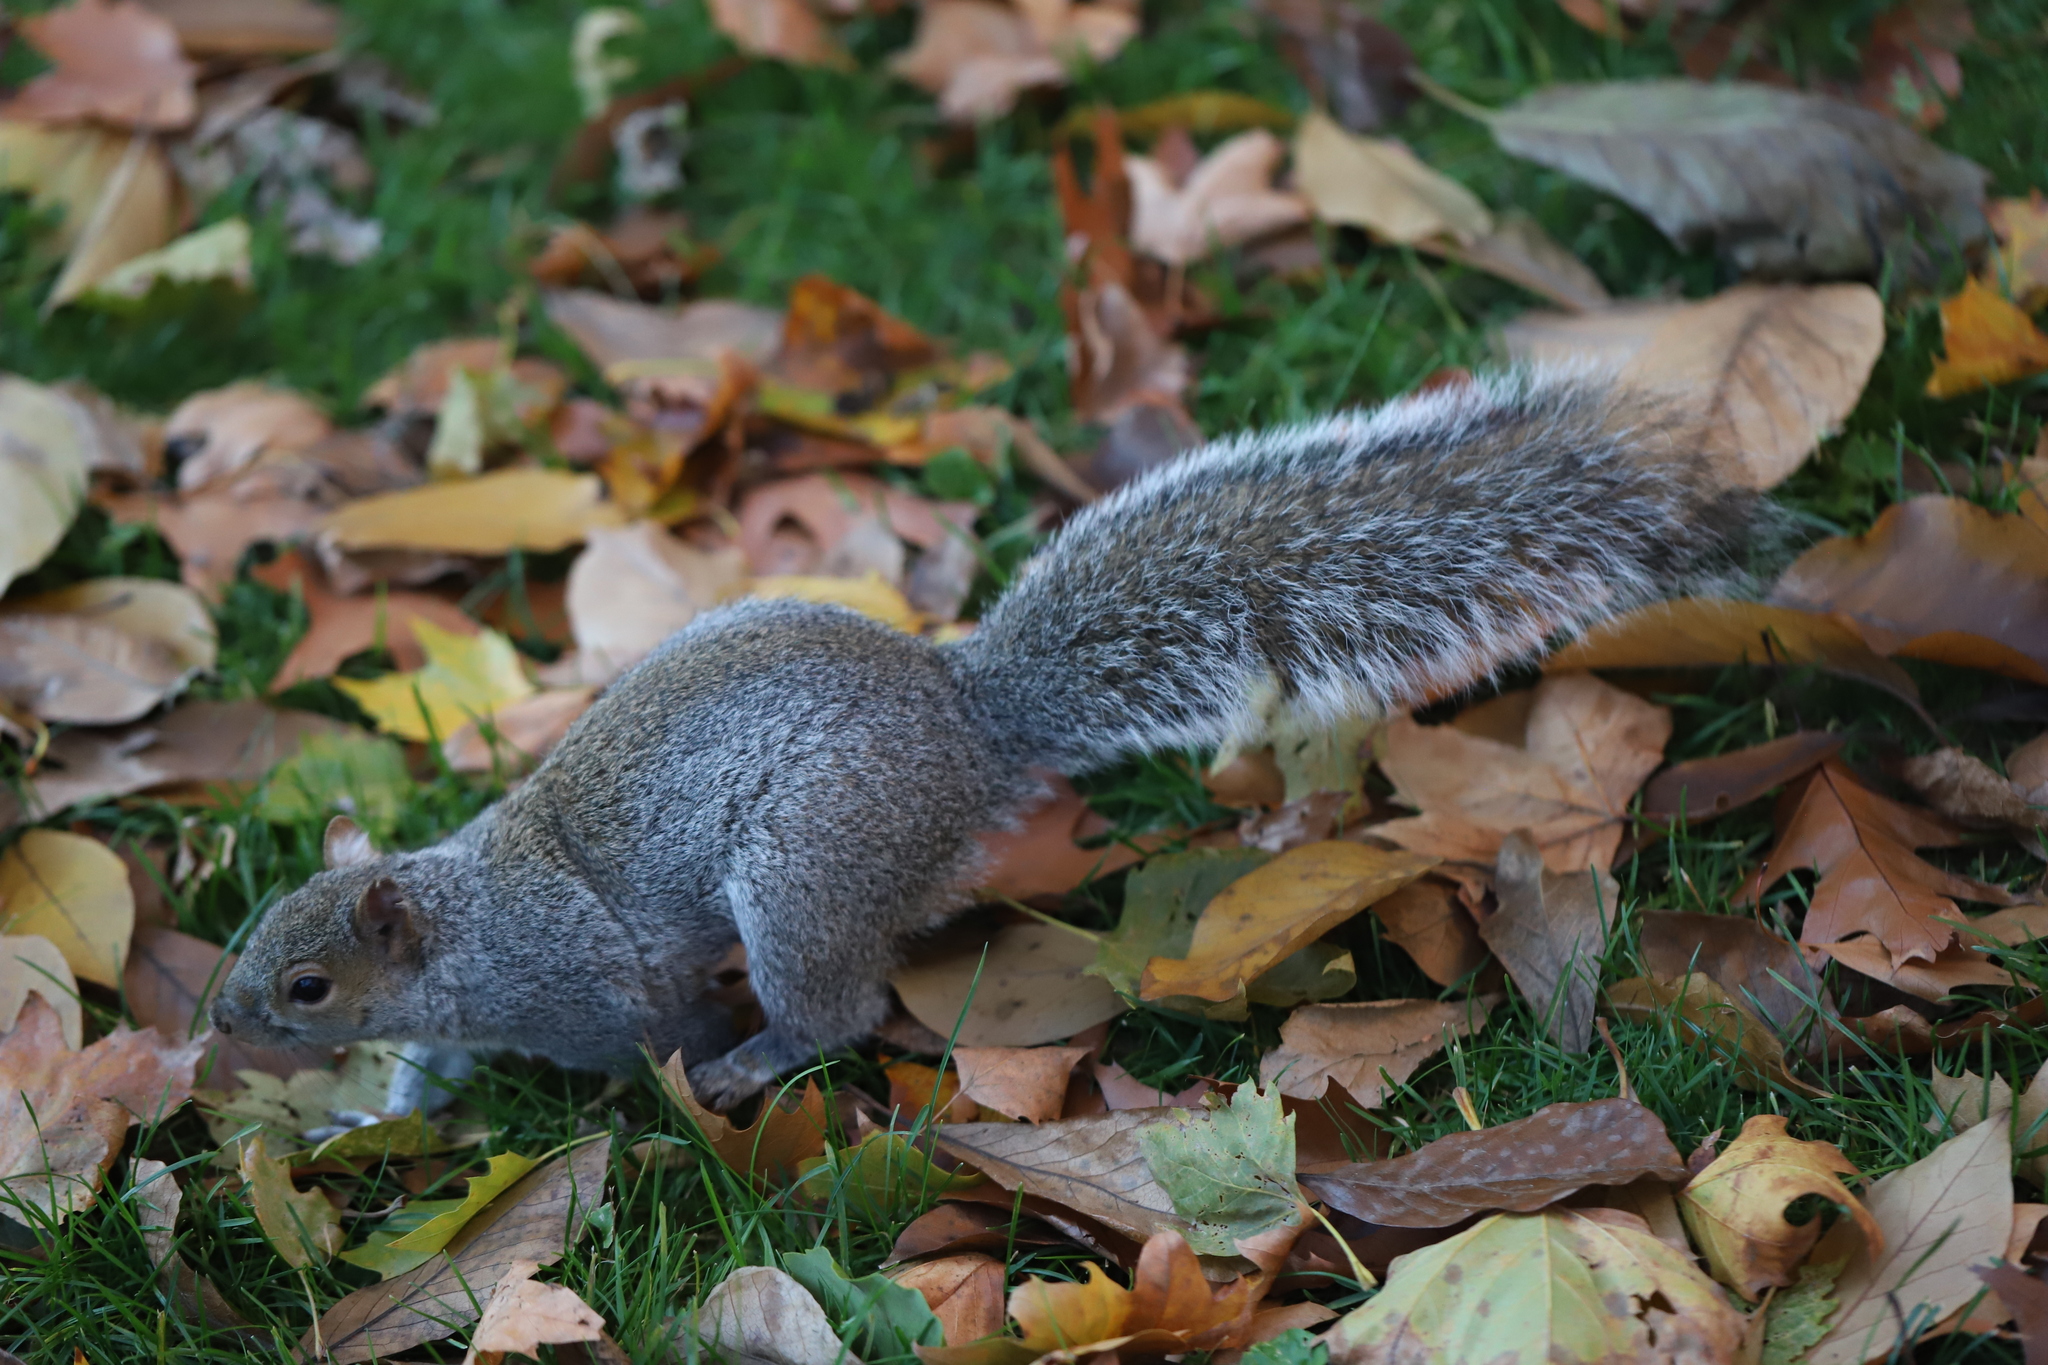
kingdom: Animalia
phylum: Chordata
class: Mammalia
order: Rodentia
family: Sciuridae
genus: Sciurus
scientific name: Sciurus carolinensis
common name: Eastern gray squirrel
